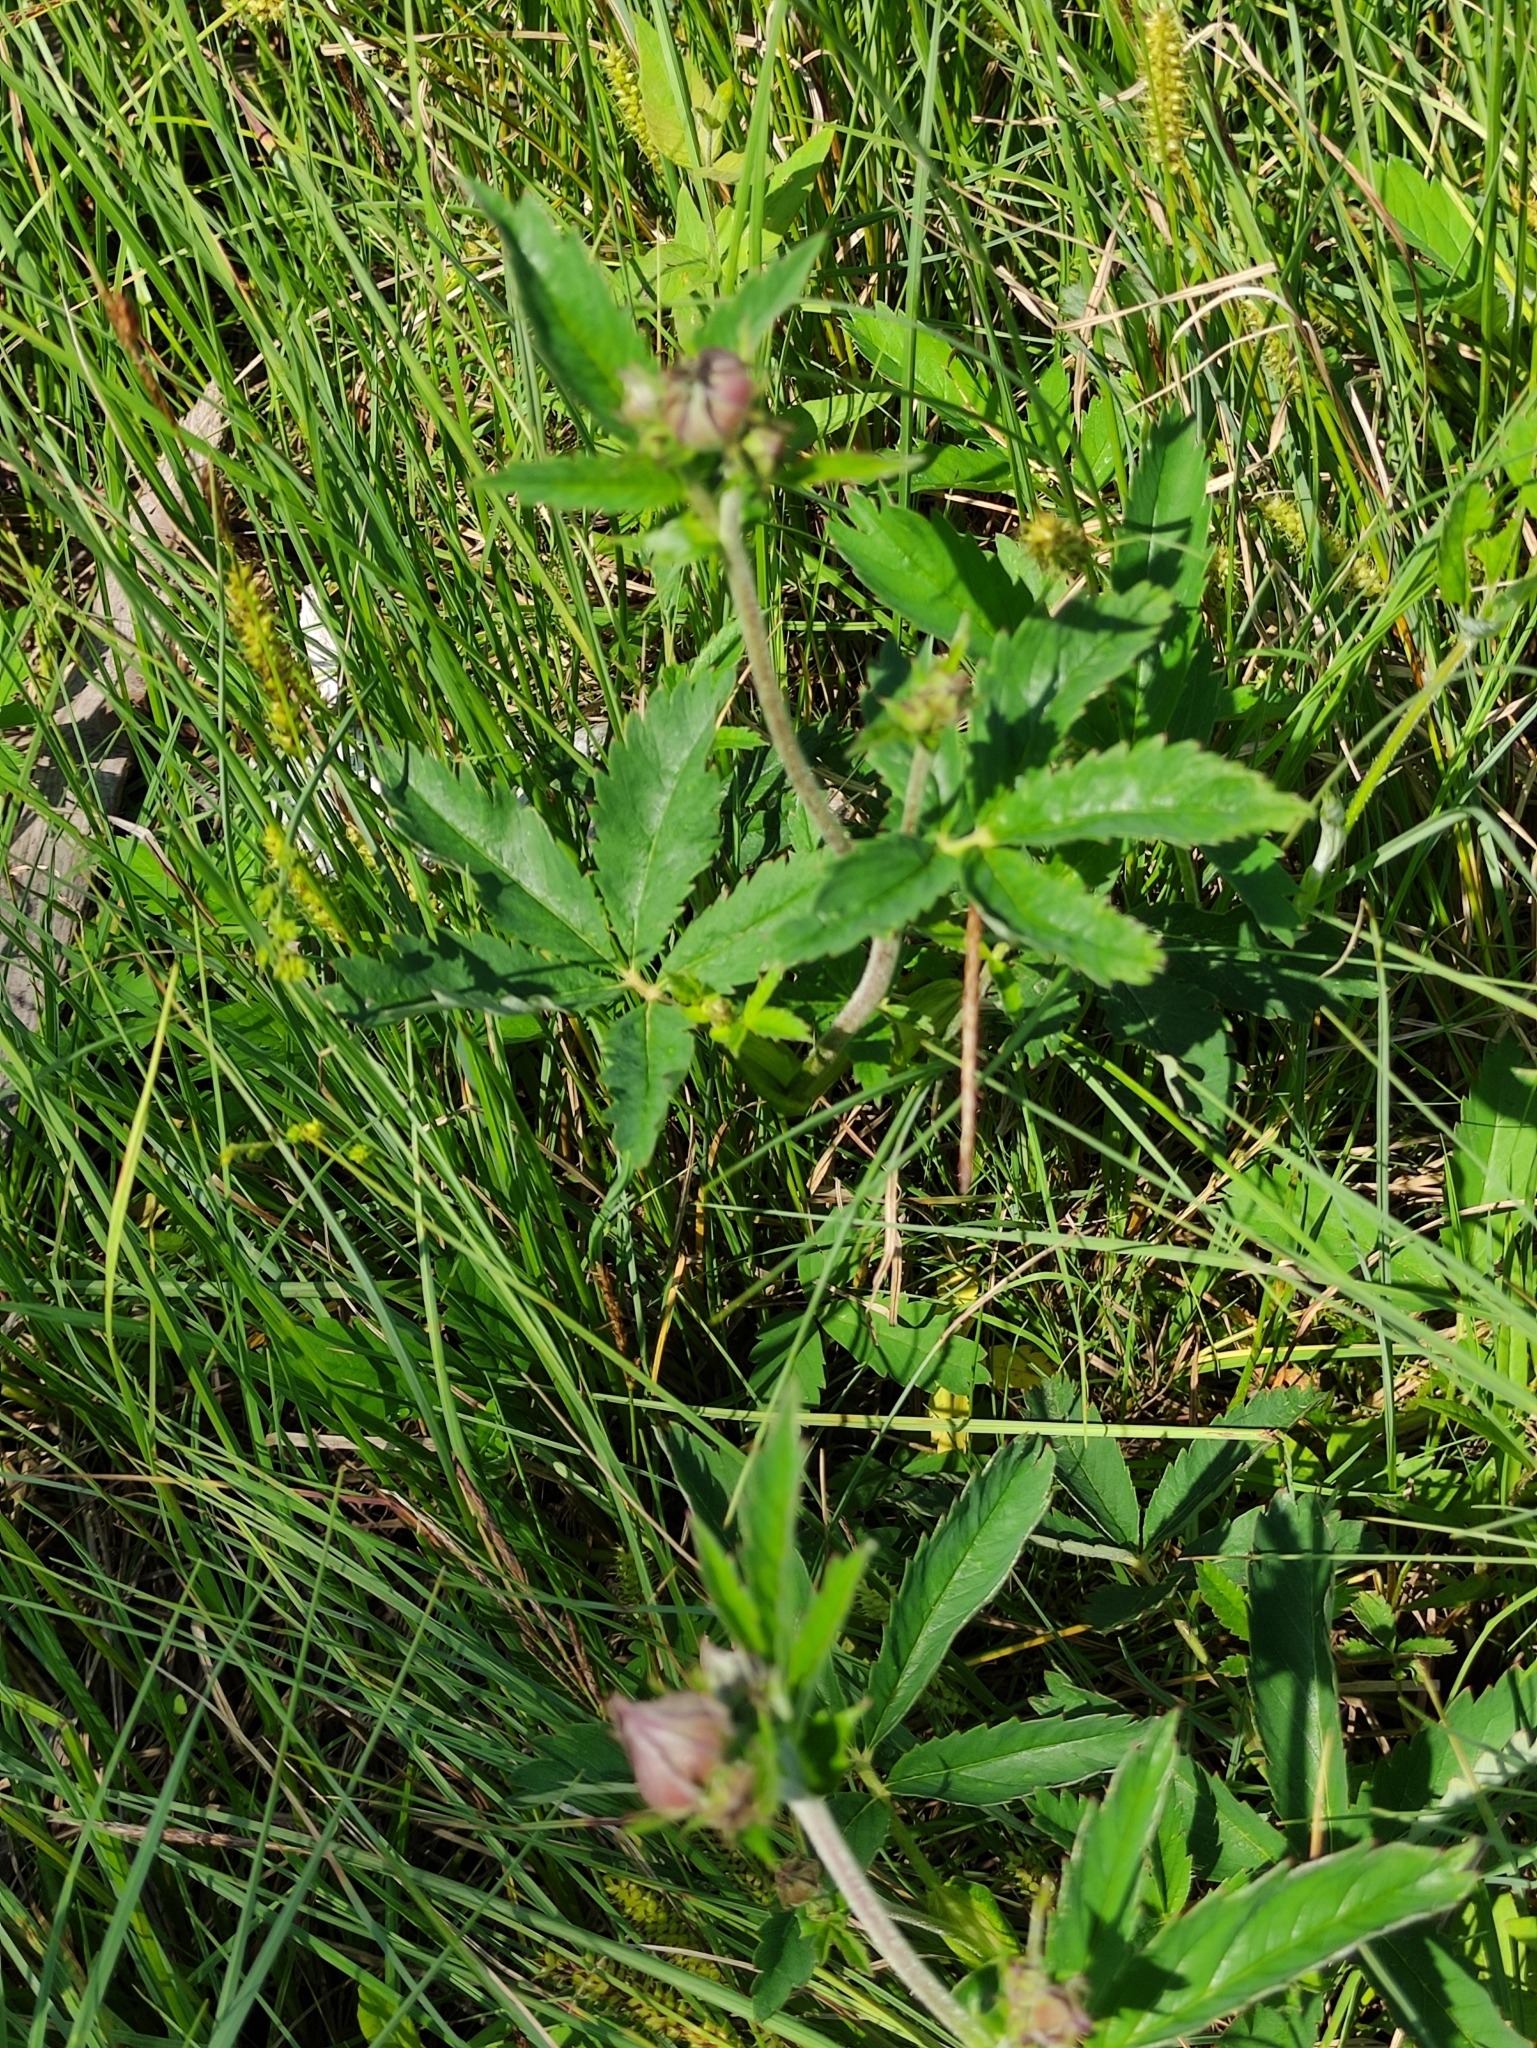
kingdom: Plantae
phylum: Tracheophyta
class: Magnoliopsida
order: Rosales
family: Rosaceae
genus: Comarum
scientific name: Comarum palustre
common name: Marsh cinquefoil
